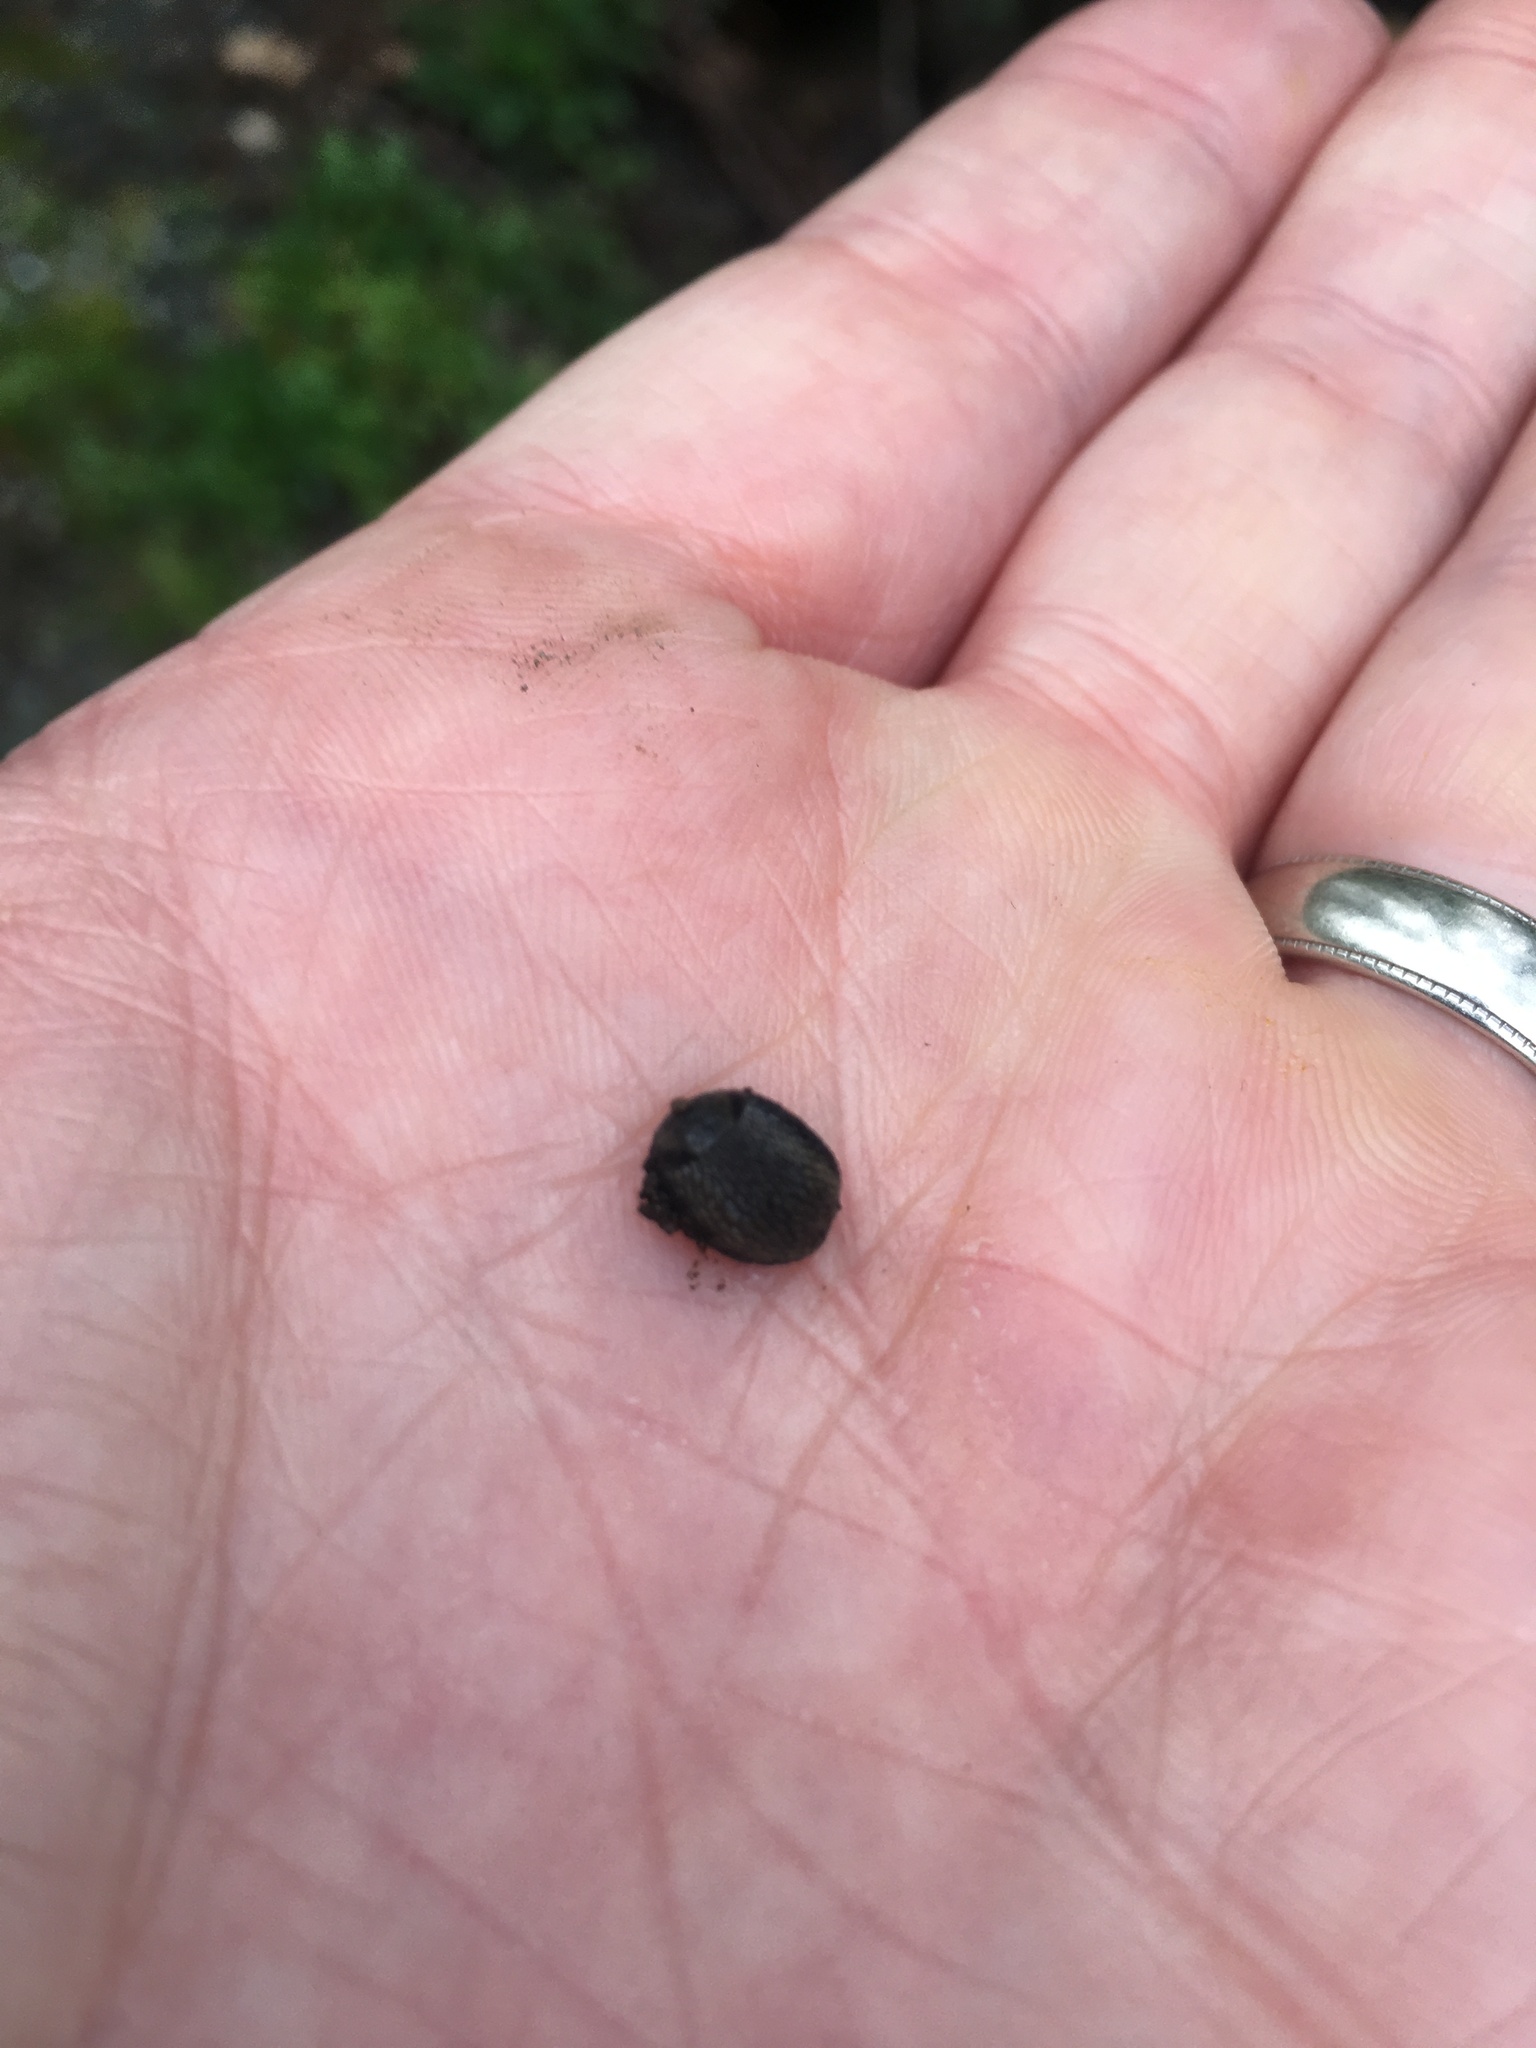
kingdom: Animalia
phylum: Mollusca
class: Gastropoda
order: Stylommatophora
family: Arionidae
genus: Arion
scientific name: Arion
